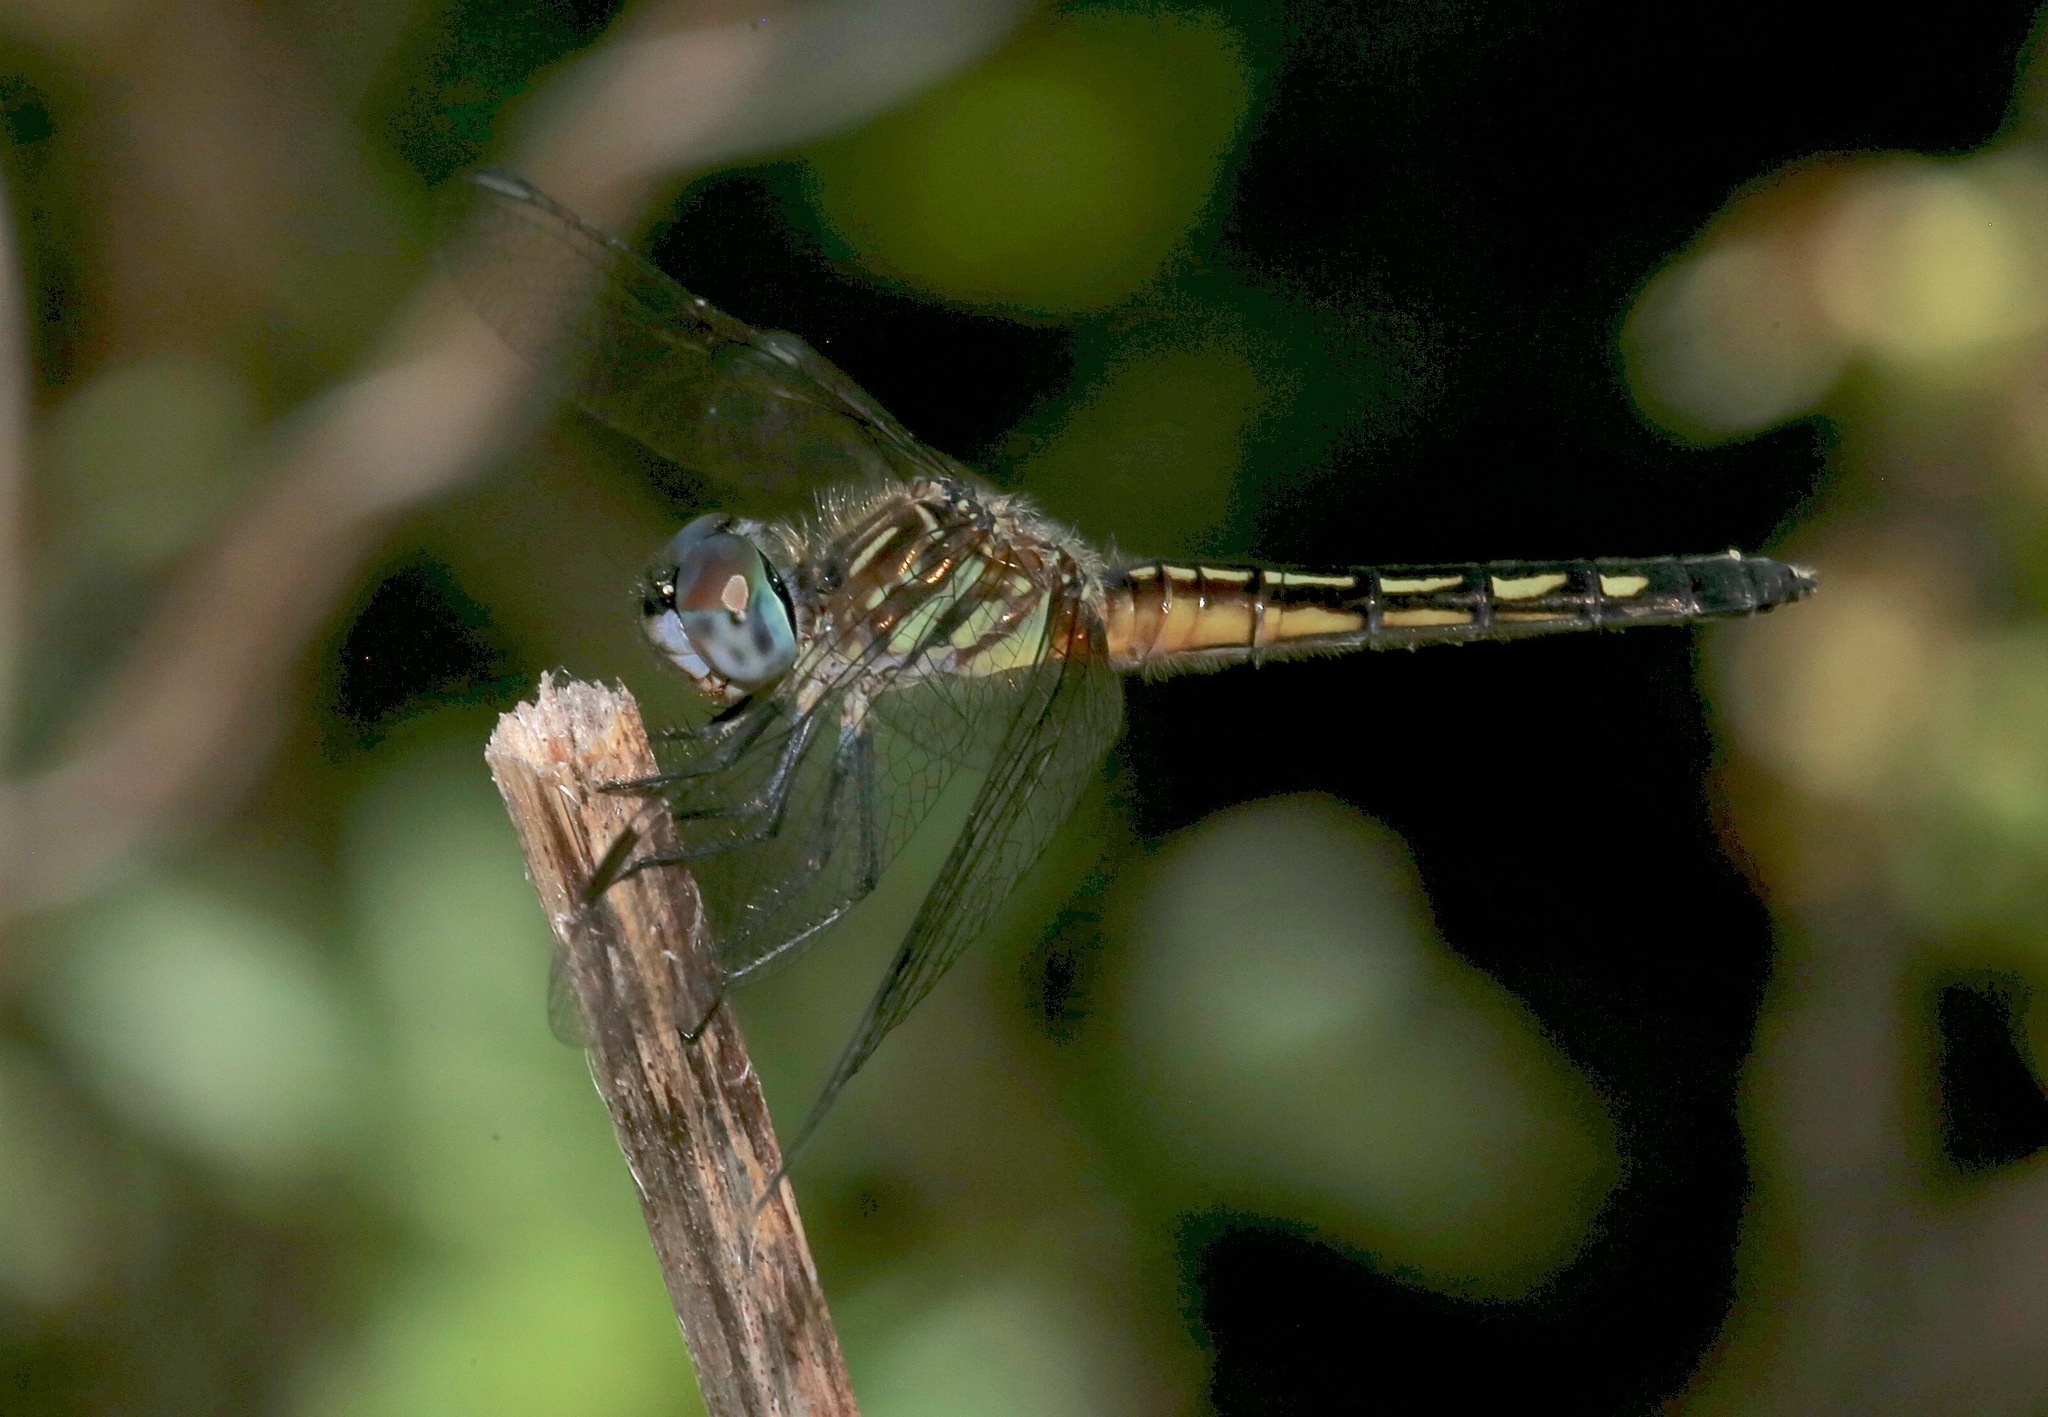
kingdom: Animalia
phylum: Arthropoda
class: Insecta
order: Odonata
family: Libellulidae
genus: Pachydiplax
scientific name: Pachydiplax longipennis
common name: Blue dasher
